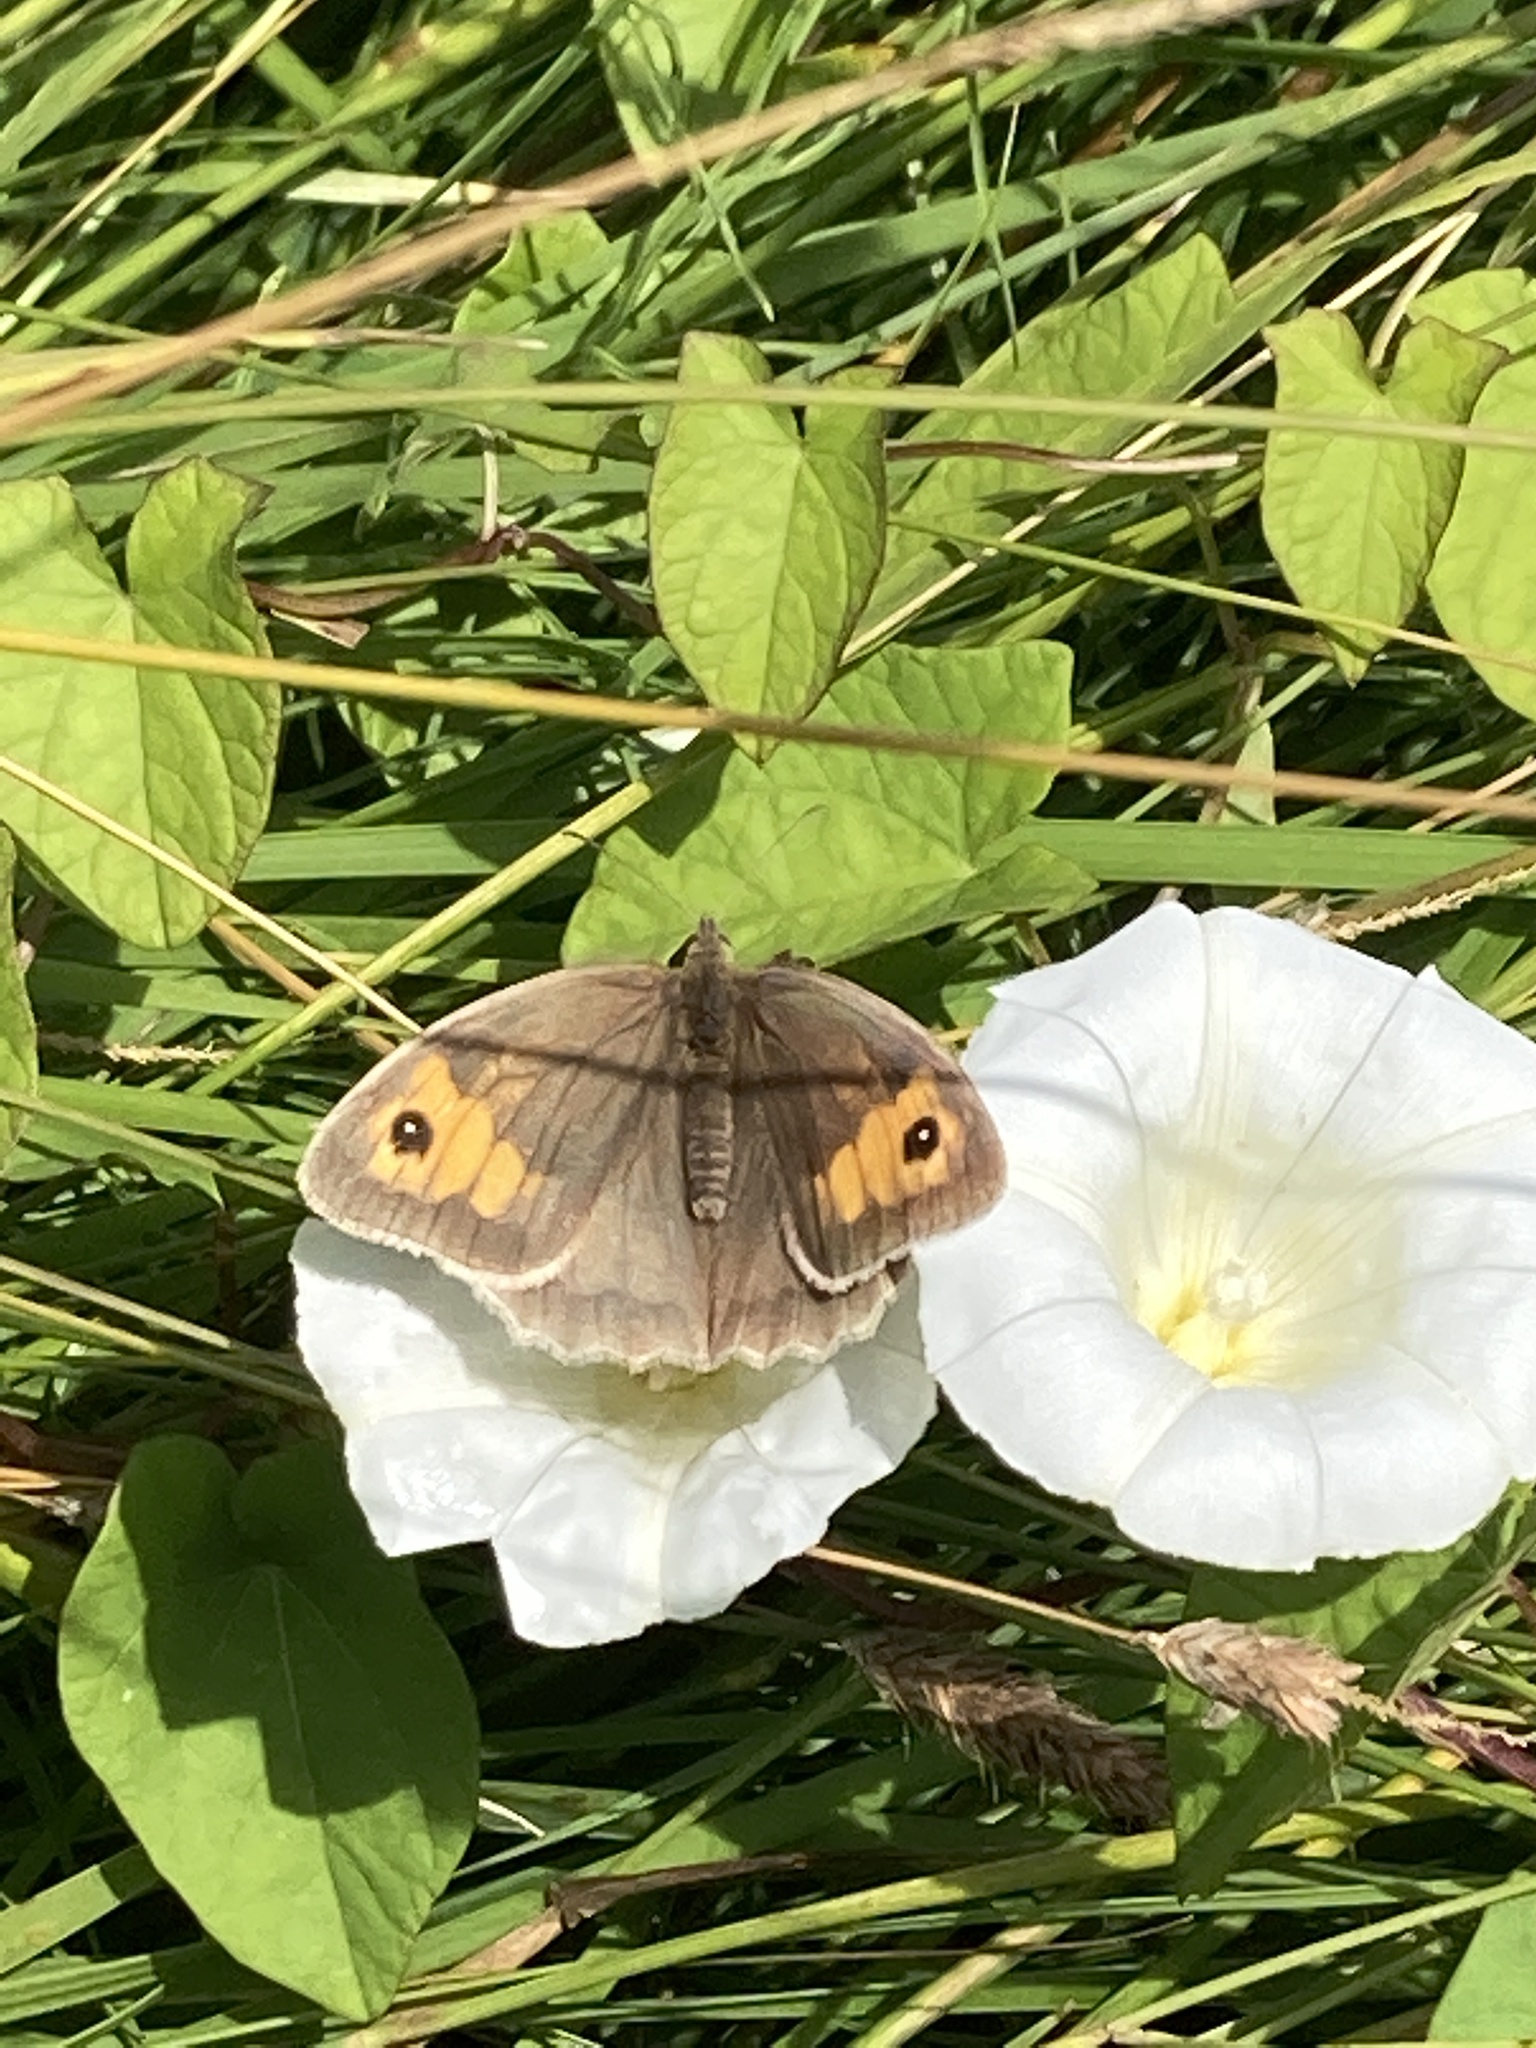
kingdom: Animalia
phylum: Arthropoda
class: Insecta
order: Lepidoptera
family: Nymphalidae
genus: Maniola
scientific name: Maniola jurtina
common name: Meadow brown
